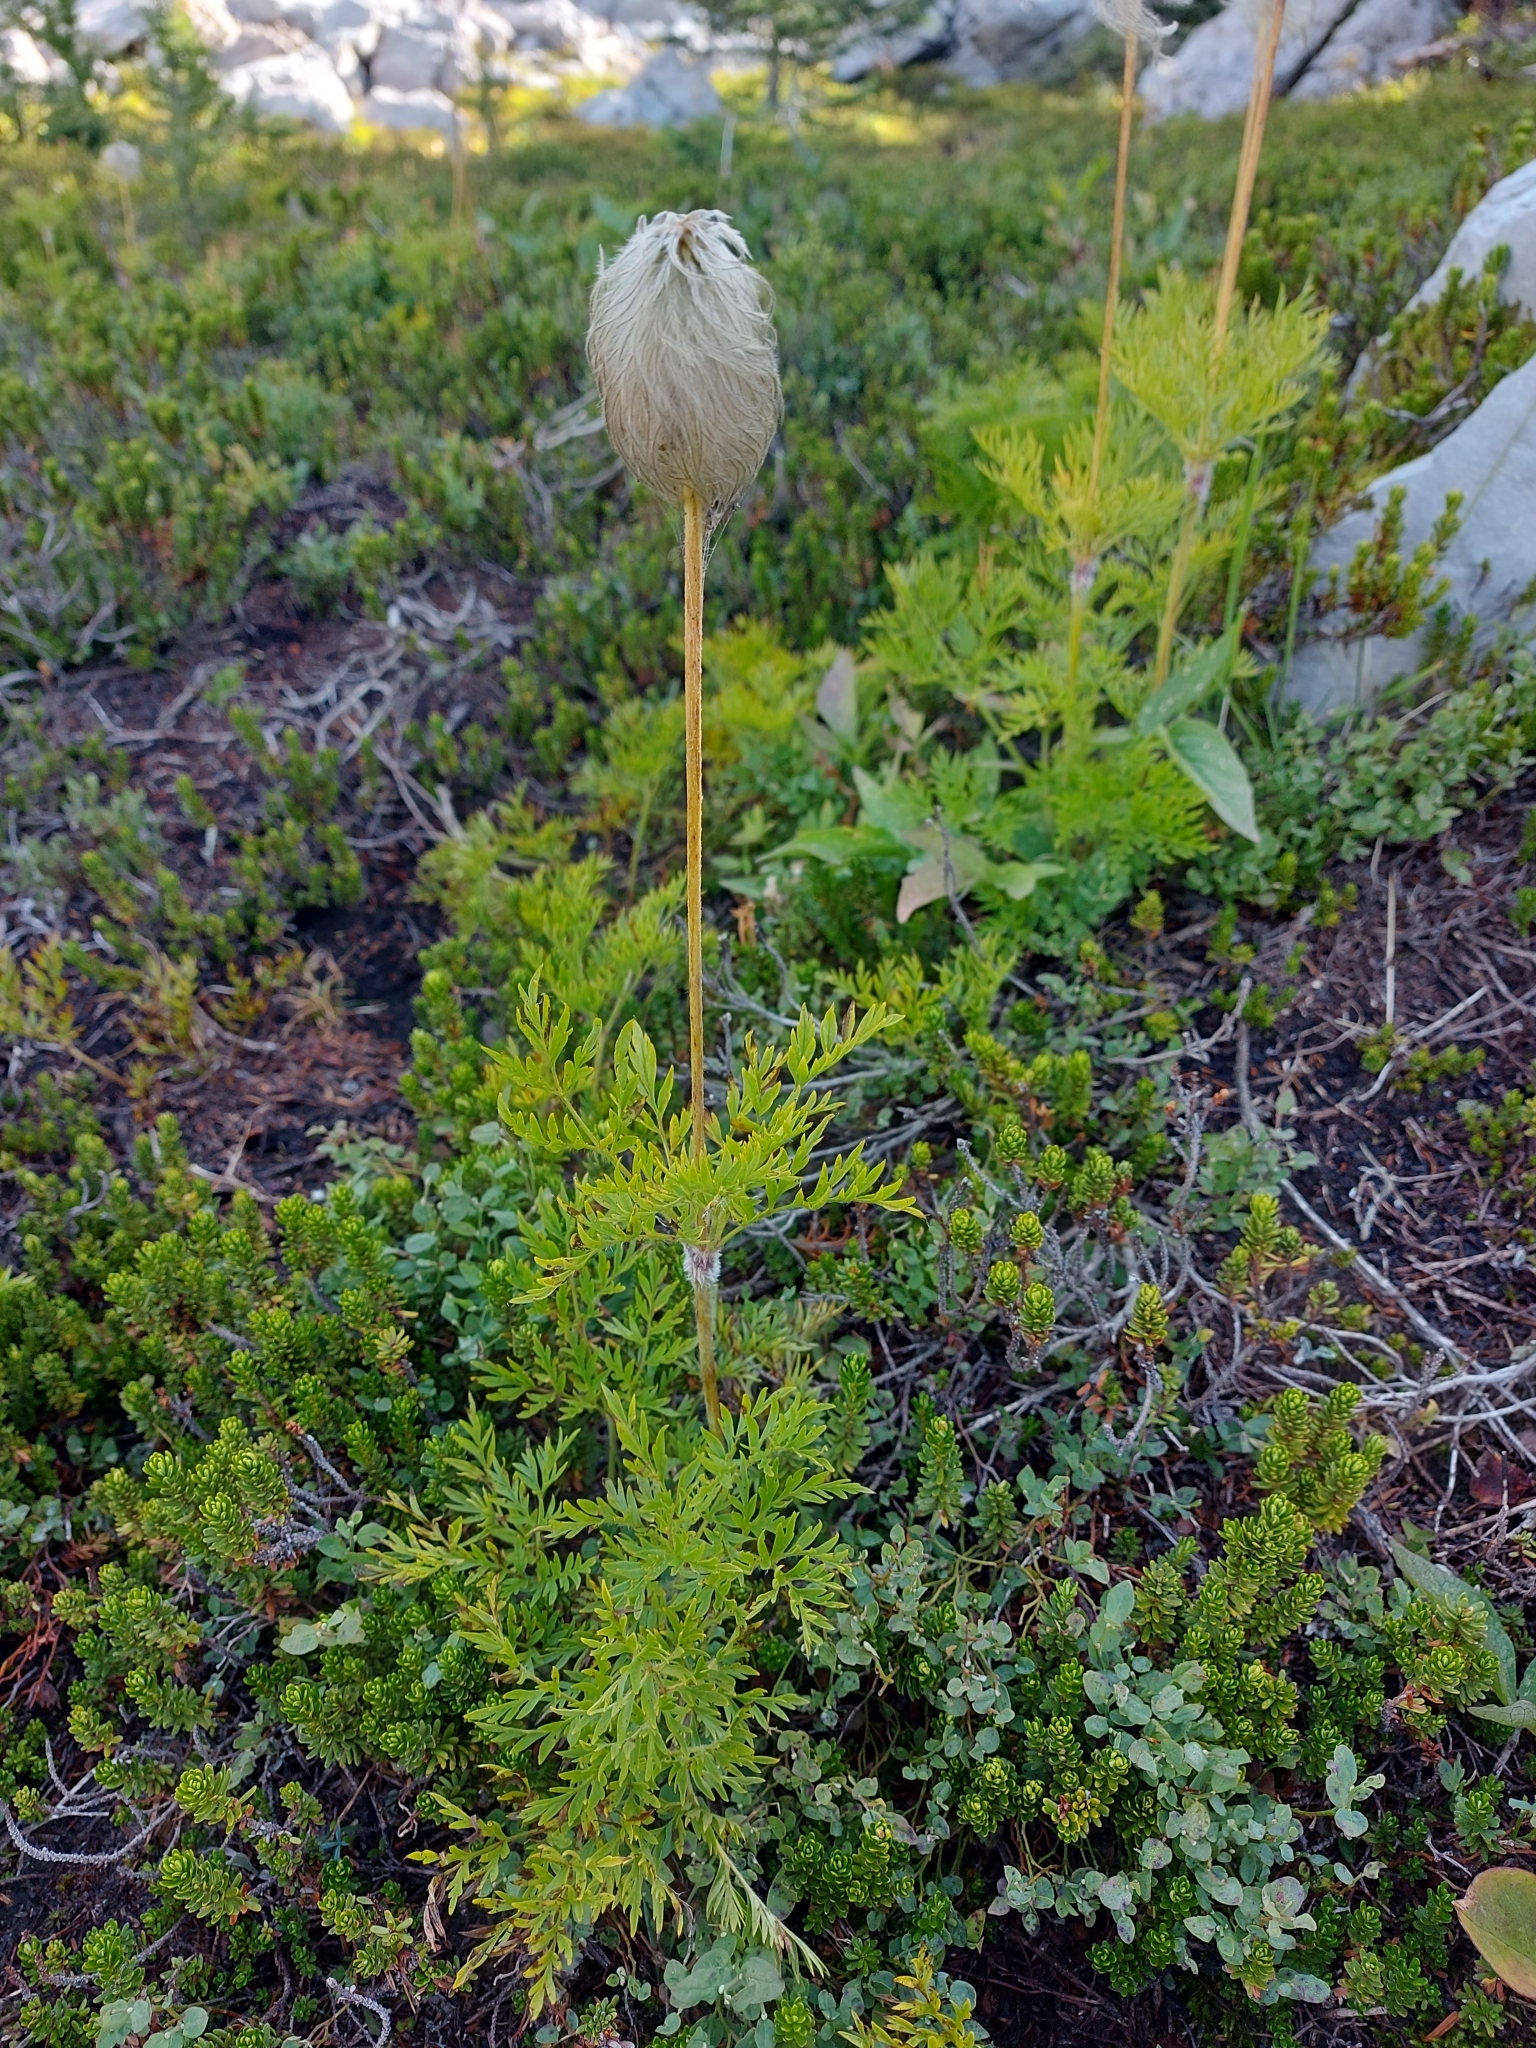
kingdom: Plantae
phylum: Tracheophyta
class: Magnoliopsida
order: Ranunculales
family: Ranunculaceae
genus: Pulsatilla
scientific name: Pulsatilla occidentalis
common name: Mountain pasqueflower
